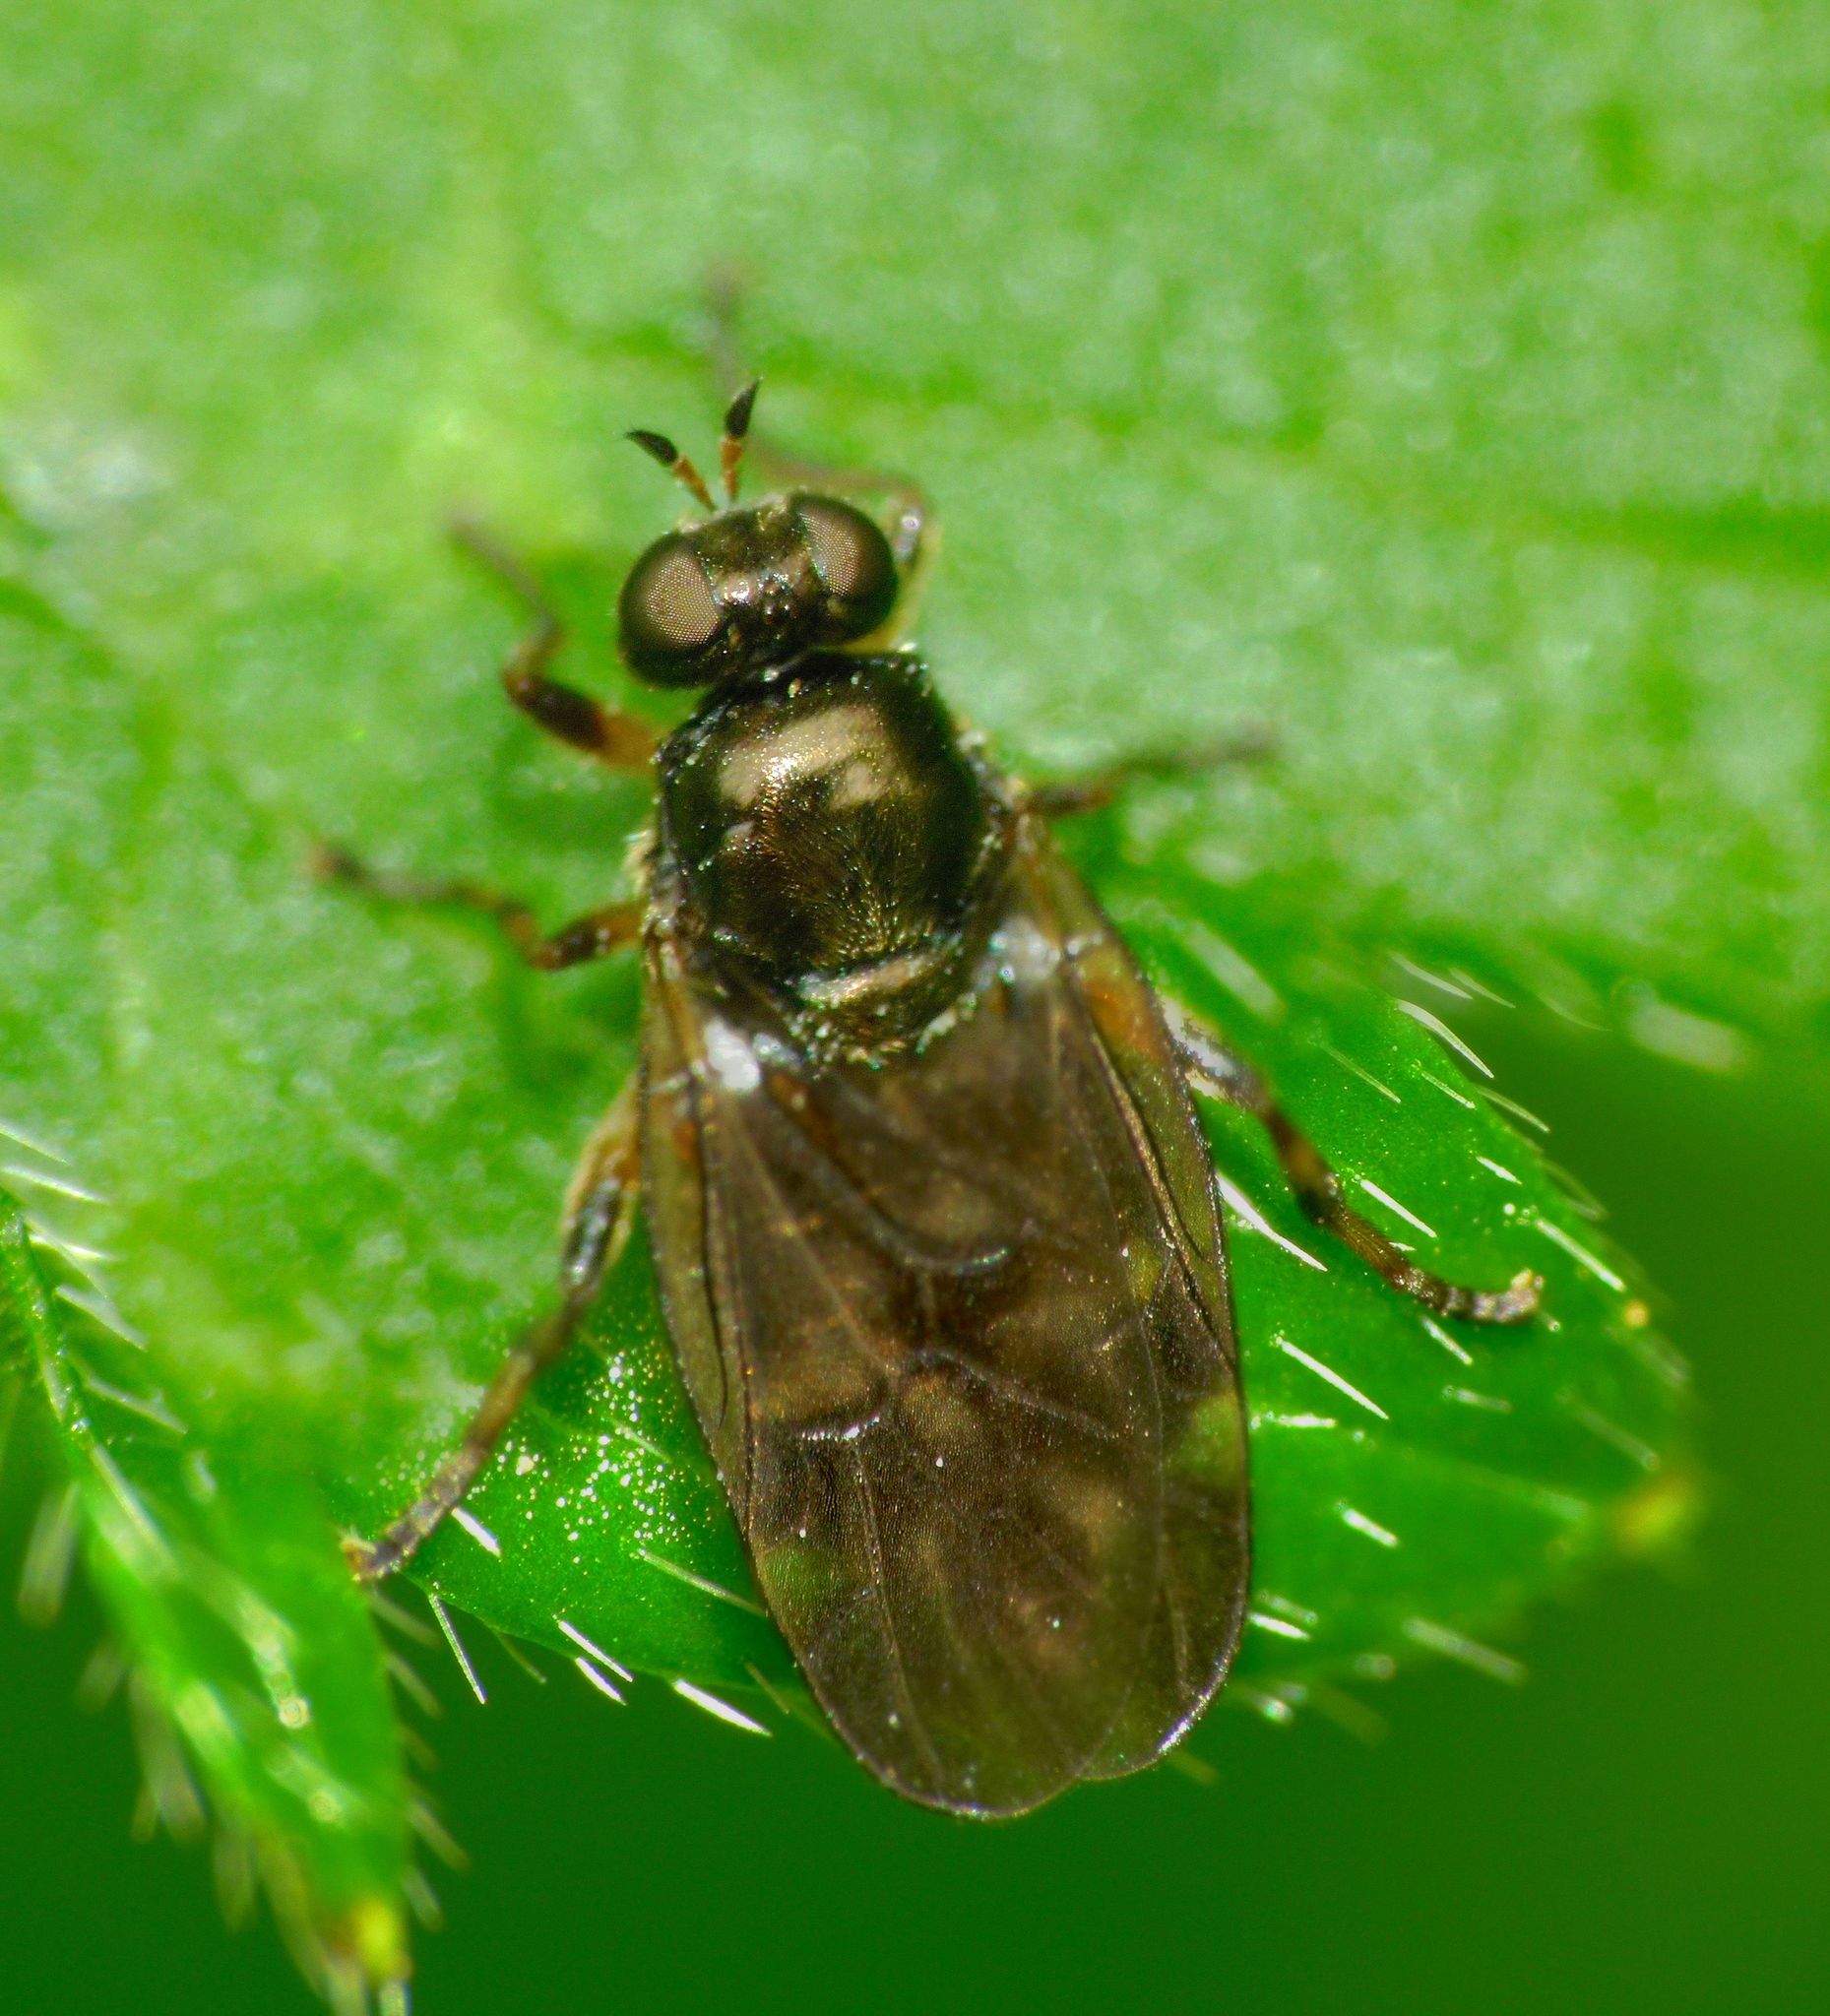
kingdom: Animalia
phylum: Arthropoda
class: Insecta
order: Diptera
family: Stratiomyidae
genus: Berisina
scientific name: Berisina maculipennis
